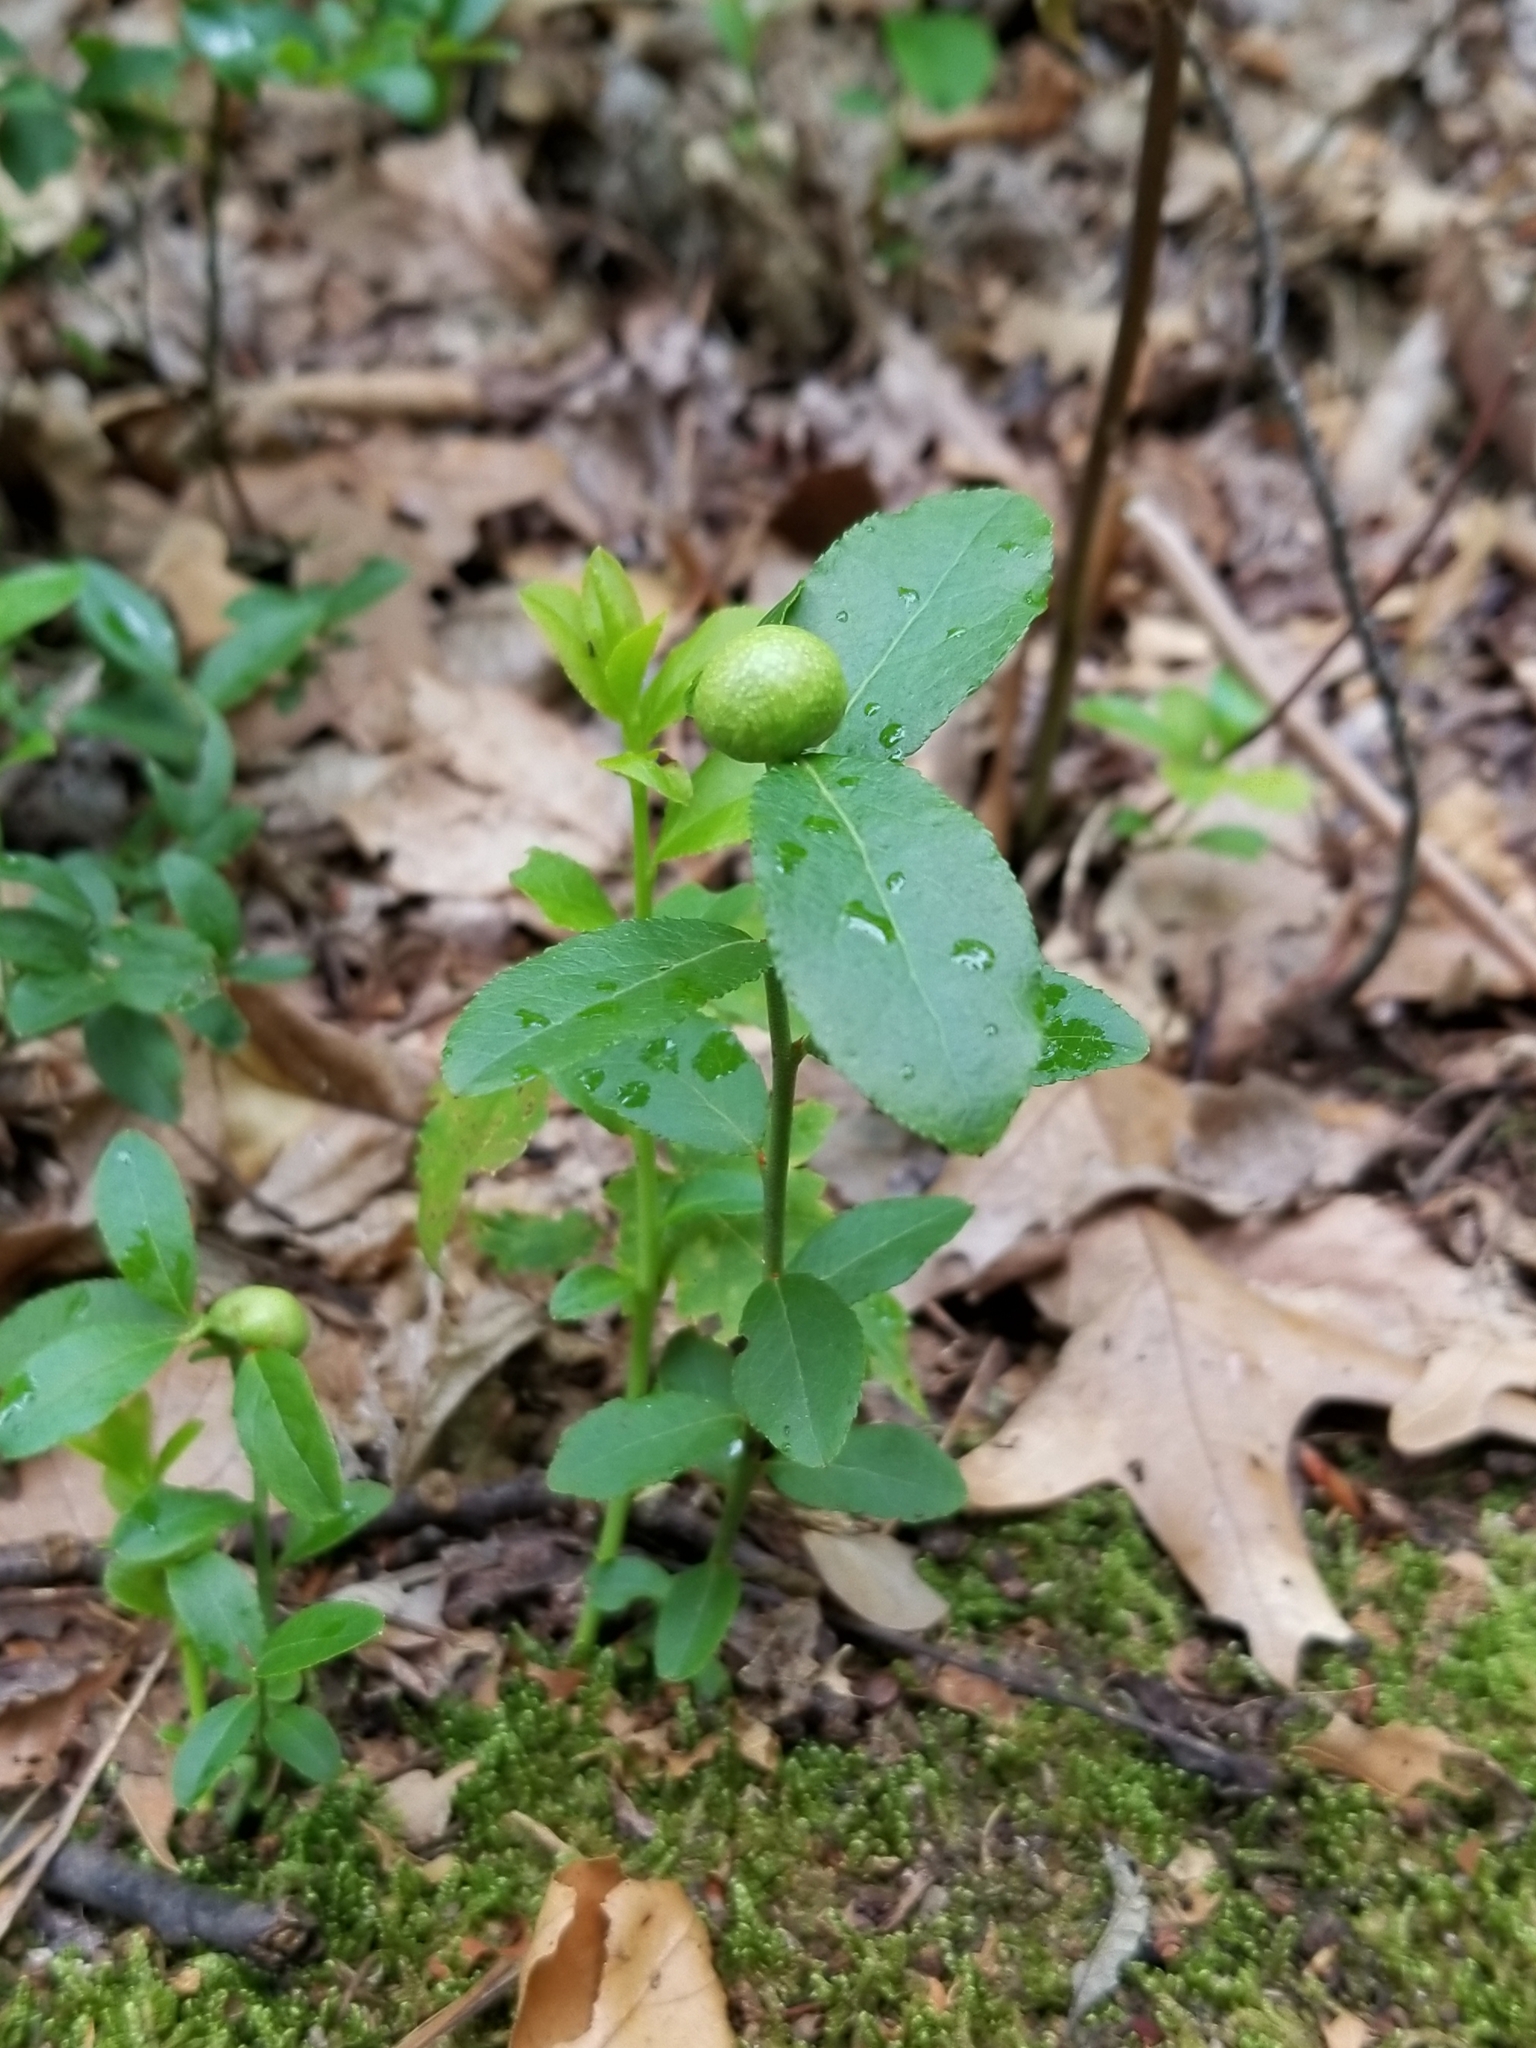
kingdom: Animalia
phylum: Arthropoda
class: Insecta
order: Hymenoptera
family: Pteromalidae
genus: Hemadas
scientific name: Hemadas nubilipennis
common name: Blueberry stem gall wasp
